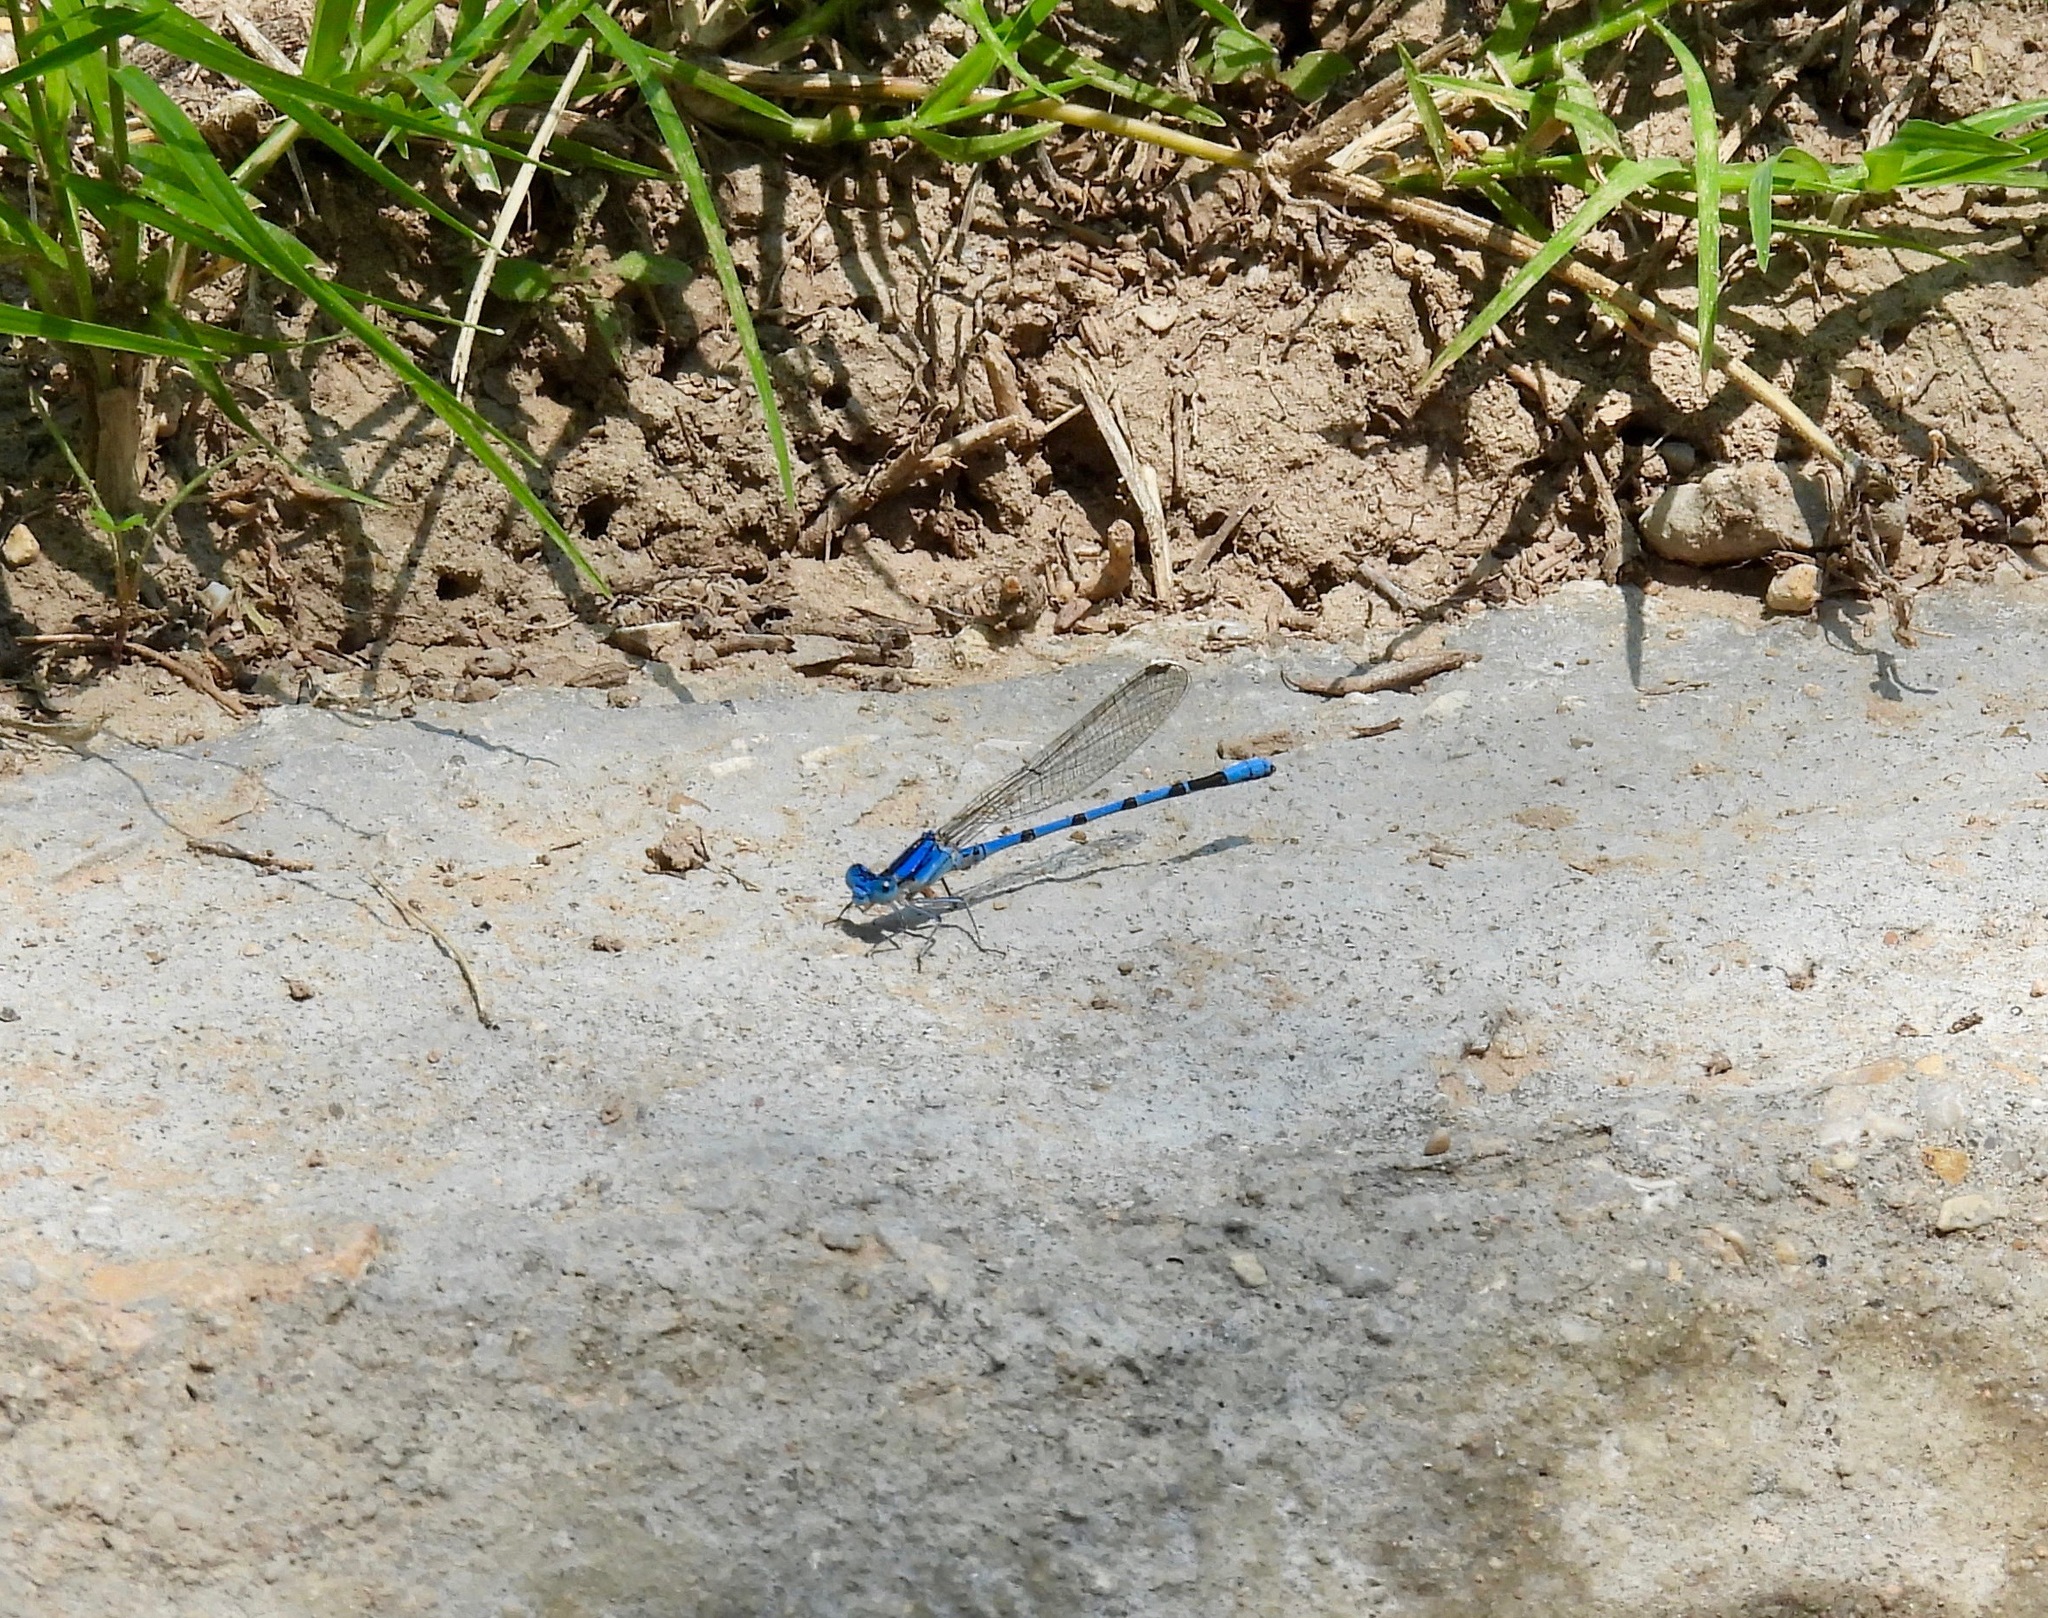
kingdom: Animalia
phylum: Arthropoda
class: Insecta
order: Odonata
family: Coenagrionidae
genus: Argia
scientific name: Argia nahuana
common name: Aztec dancer
